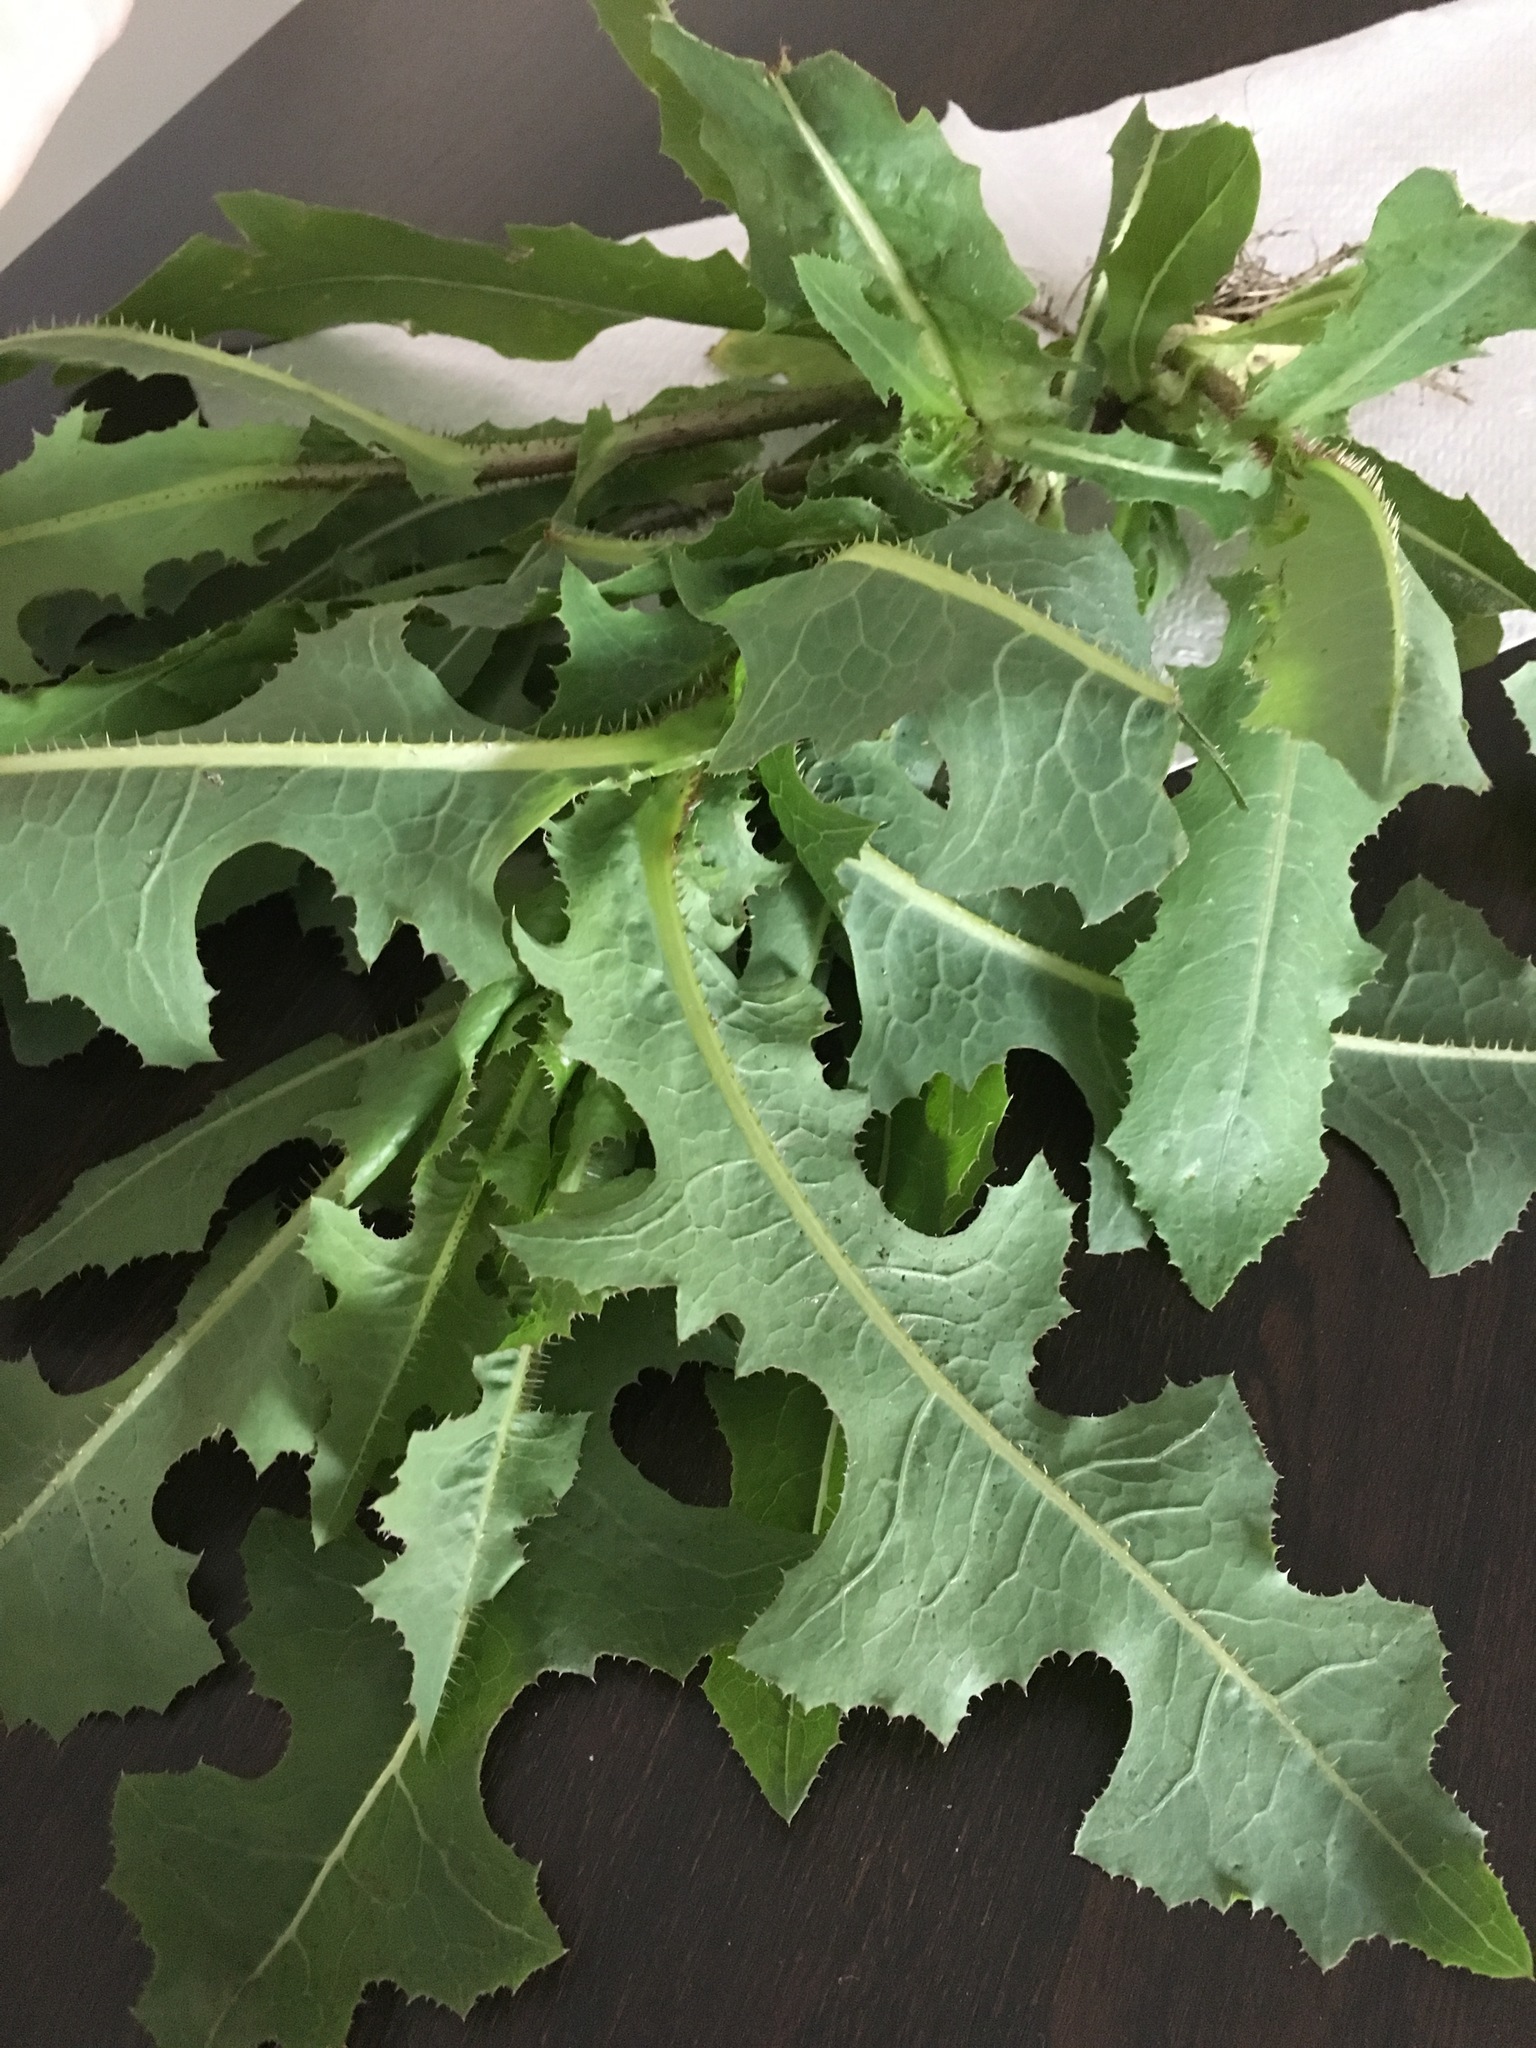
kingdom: Plantae
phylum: Tracheophyta
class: Magnoliopsida
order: Asterales
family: Asteraceae
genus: Lactuca
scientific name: Lactuca serriola
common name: Prickly lettuce
